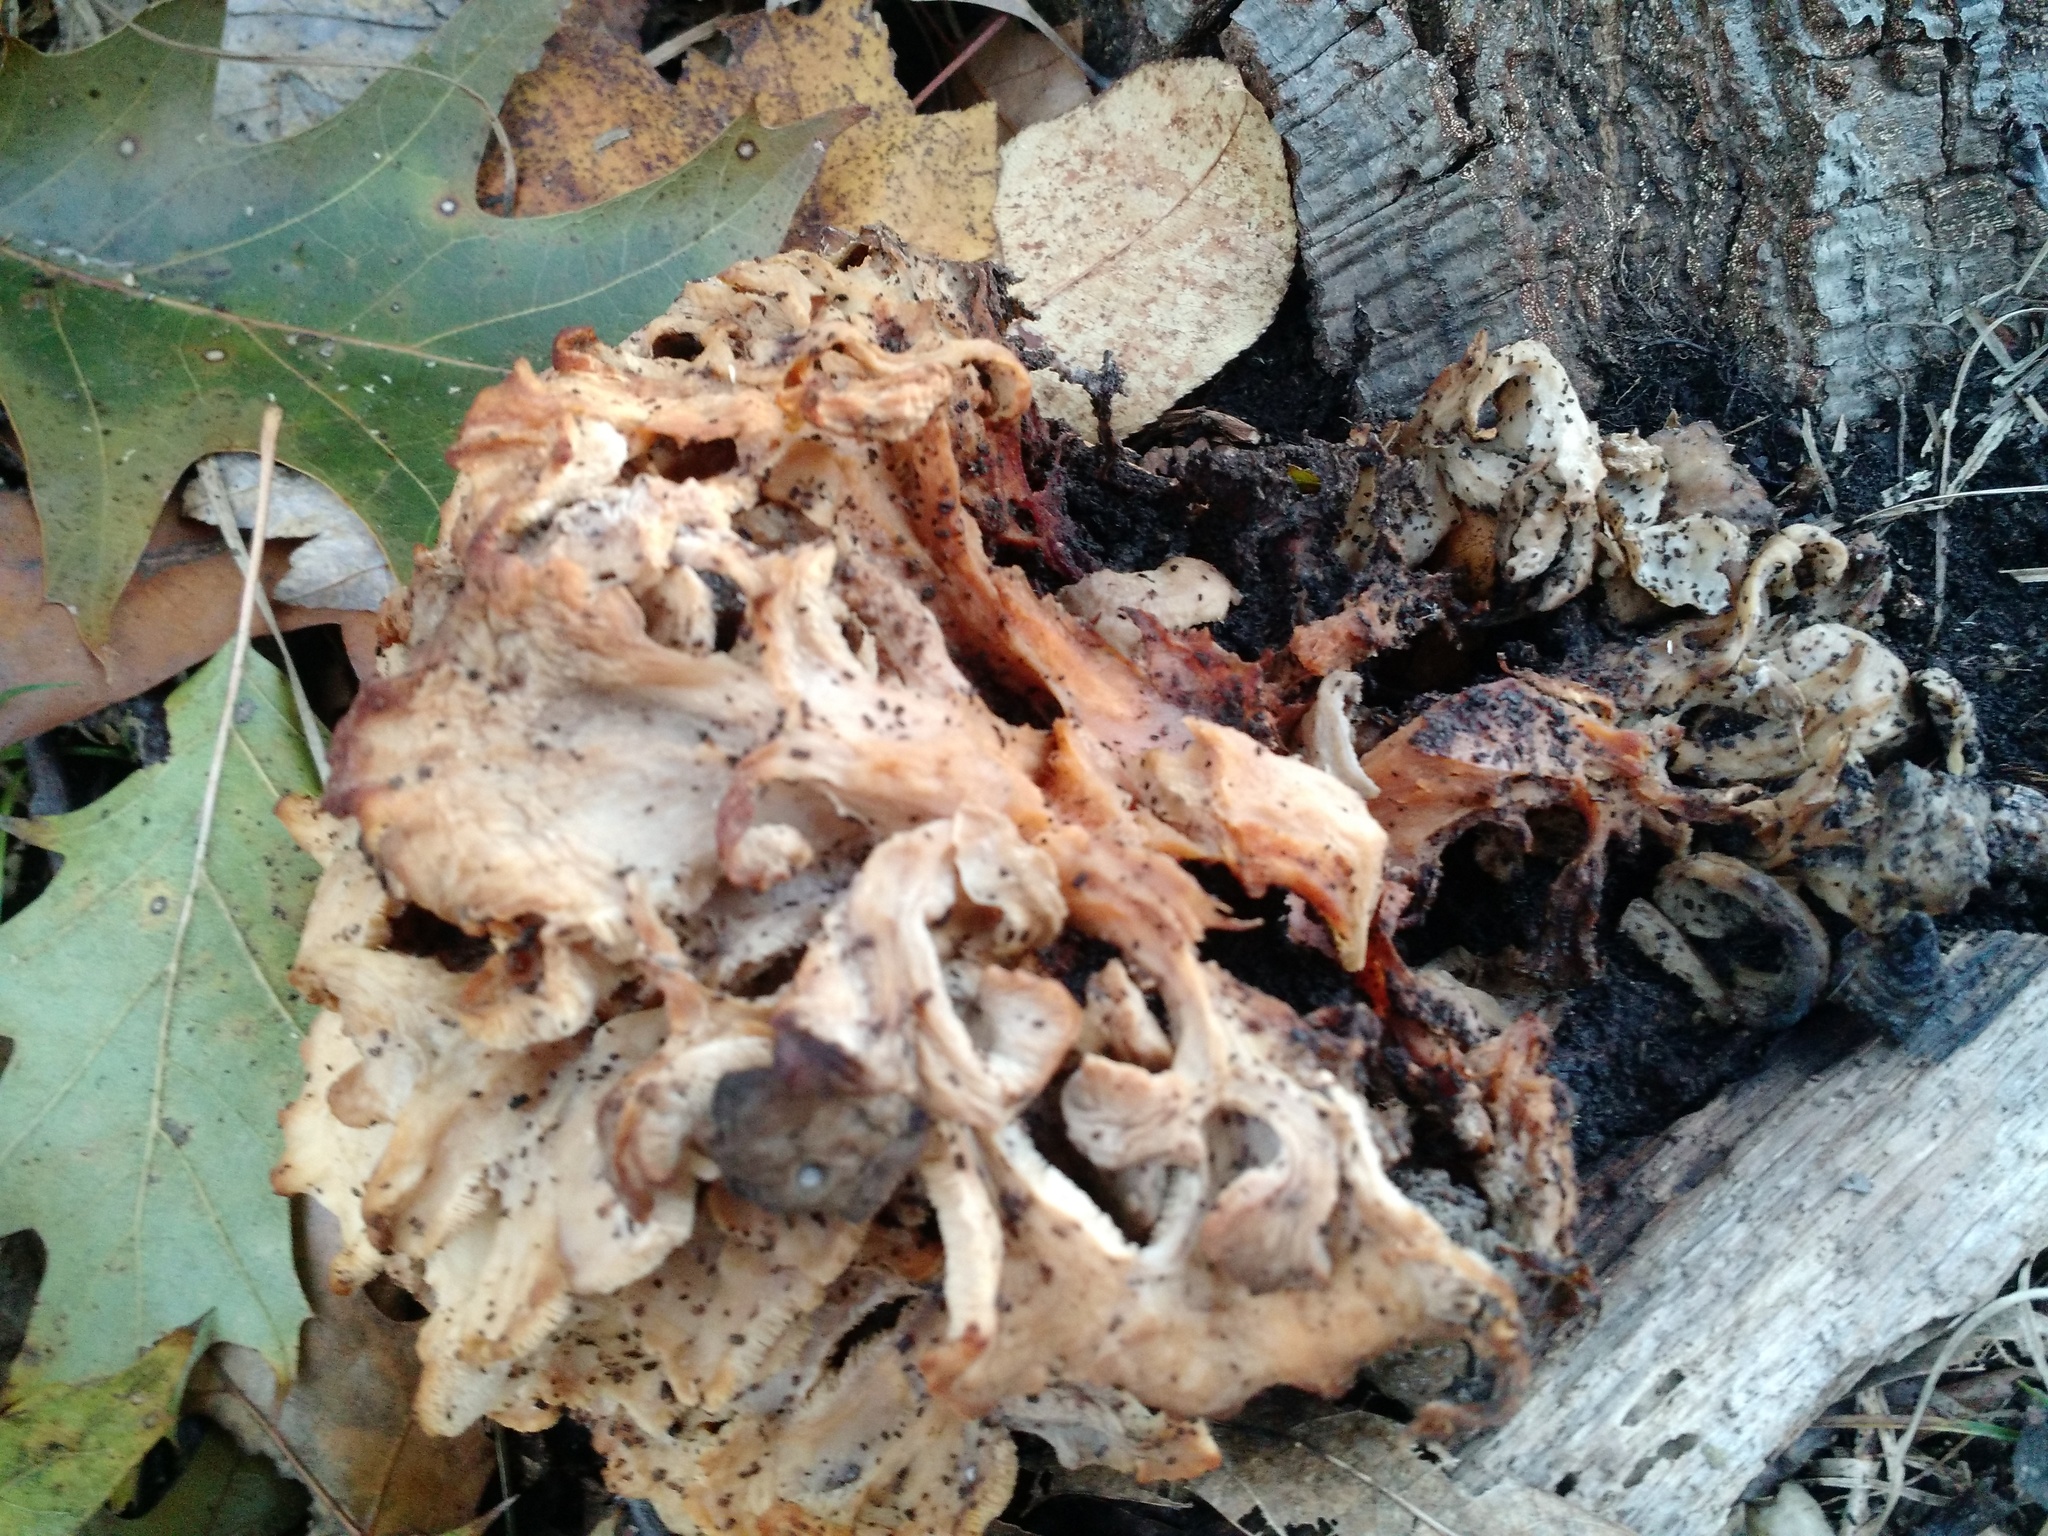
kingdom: Fungi
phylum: Basidiomycota
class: Agaricomycetes
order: Polyporales
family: Grifolaceae
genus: Grifola
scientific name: Grifola frondosa
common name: Hen of the woods
